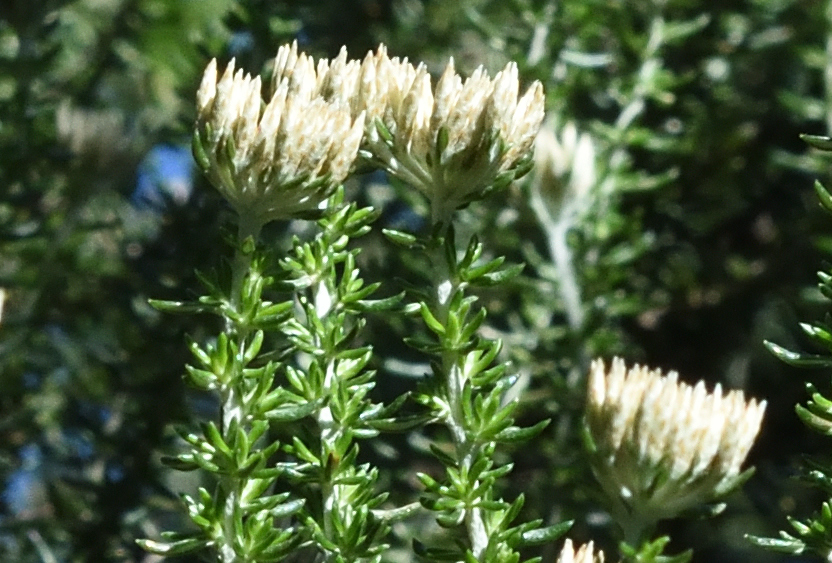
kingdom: Plantae
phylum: Tracheophyta
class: Magnoliopsida
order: Asterales
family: Asteraceae
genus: Metalasia
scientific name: Metalasia muricata
